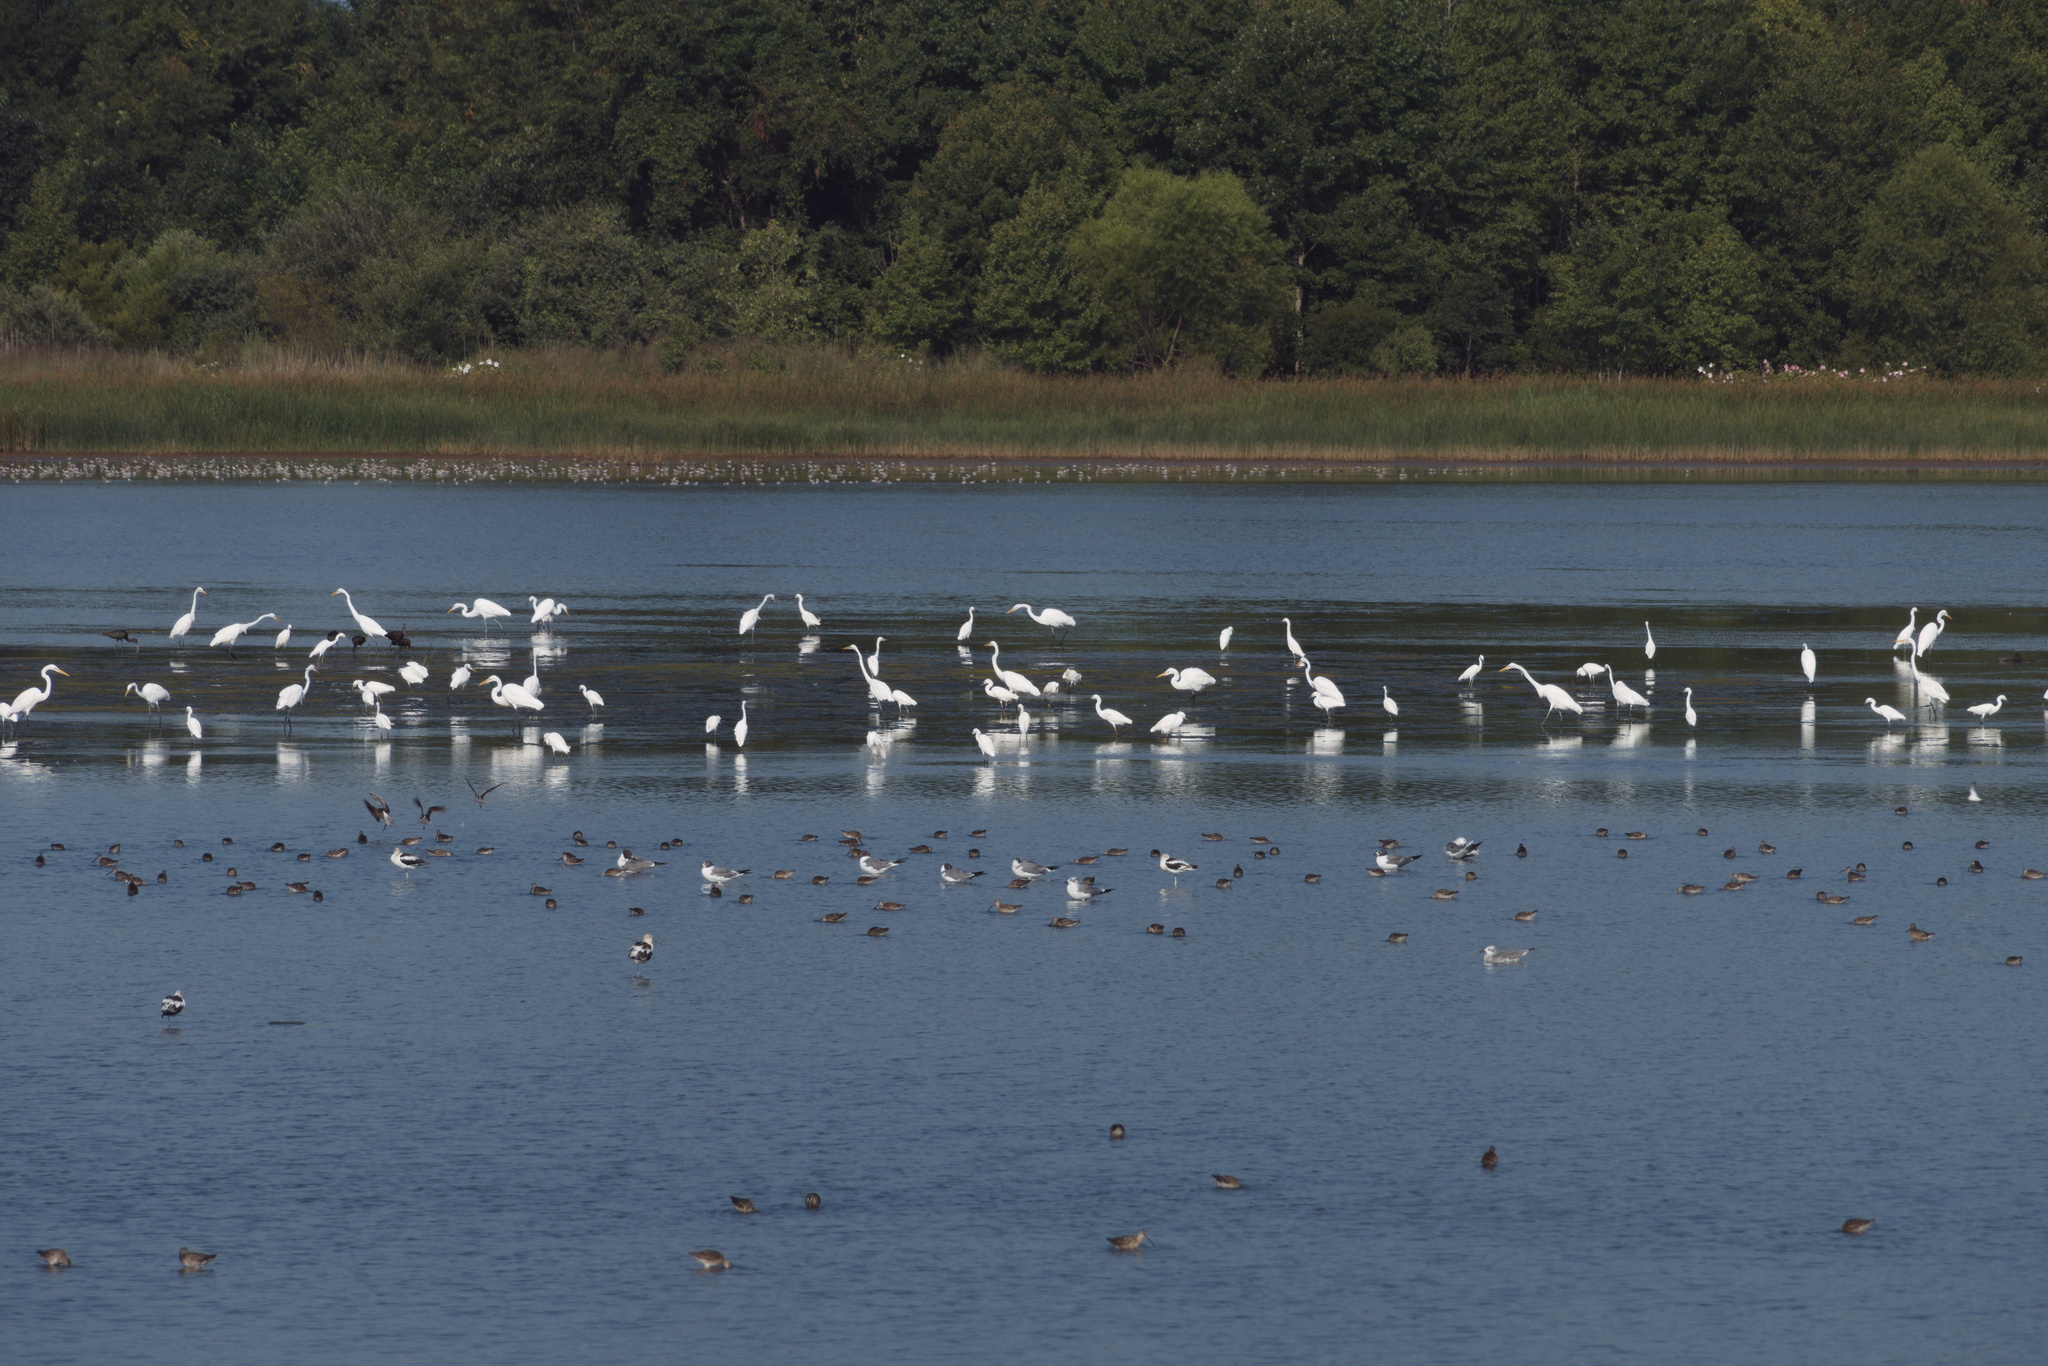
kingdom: Animalia
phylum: Chordata
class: Aves
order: Pelecaniformes
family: Ardeidae
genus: Ardea
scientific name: Ardea alba
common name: Great egret
